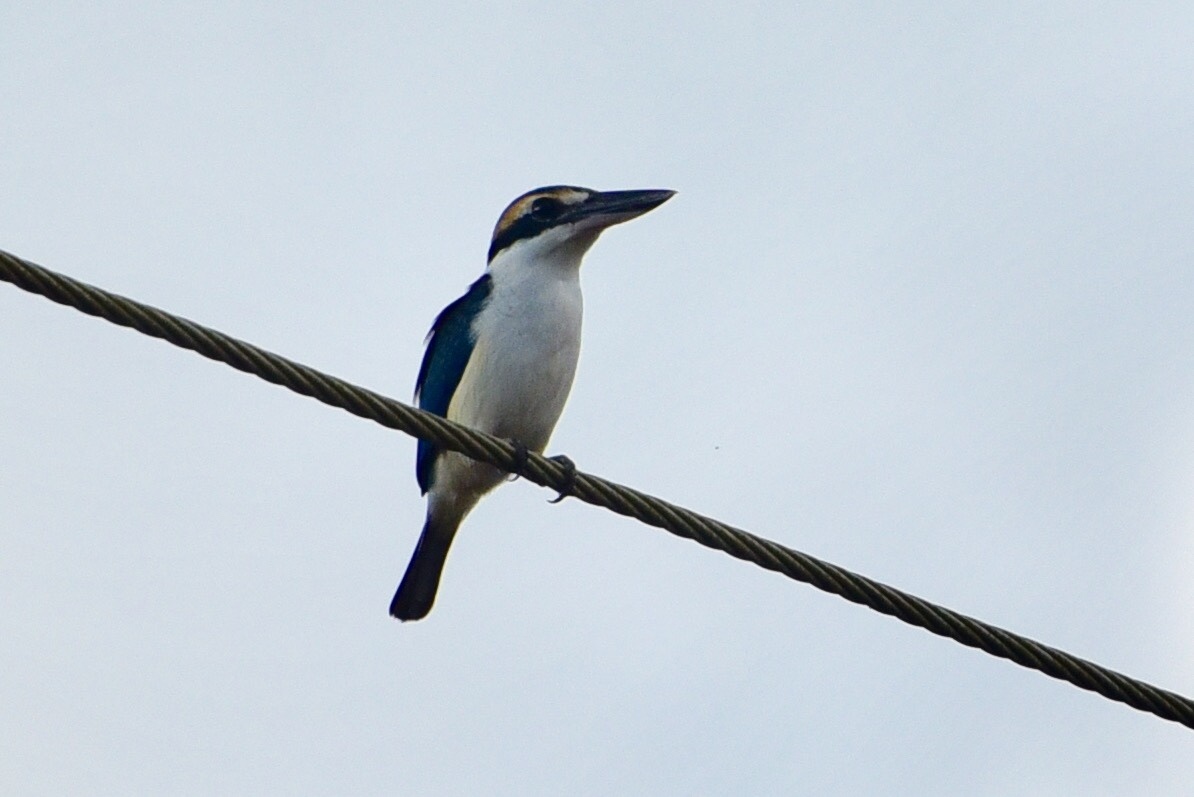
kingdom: Animalia
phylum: Chordata
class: Aves
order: Coraciiformes
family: Alcedinidae
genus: Todiramphus
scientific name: Todiramphus sacer
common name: Pacific kingfisher
